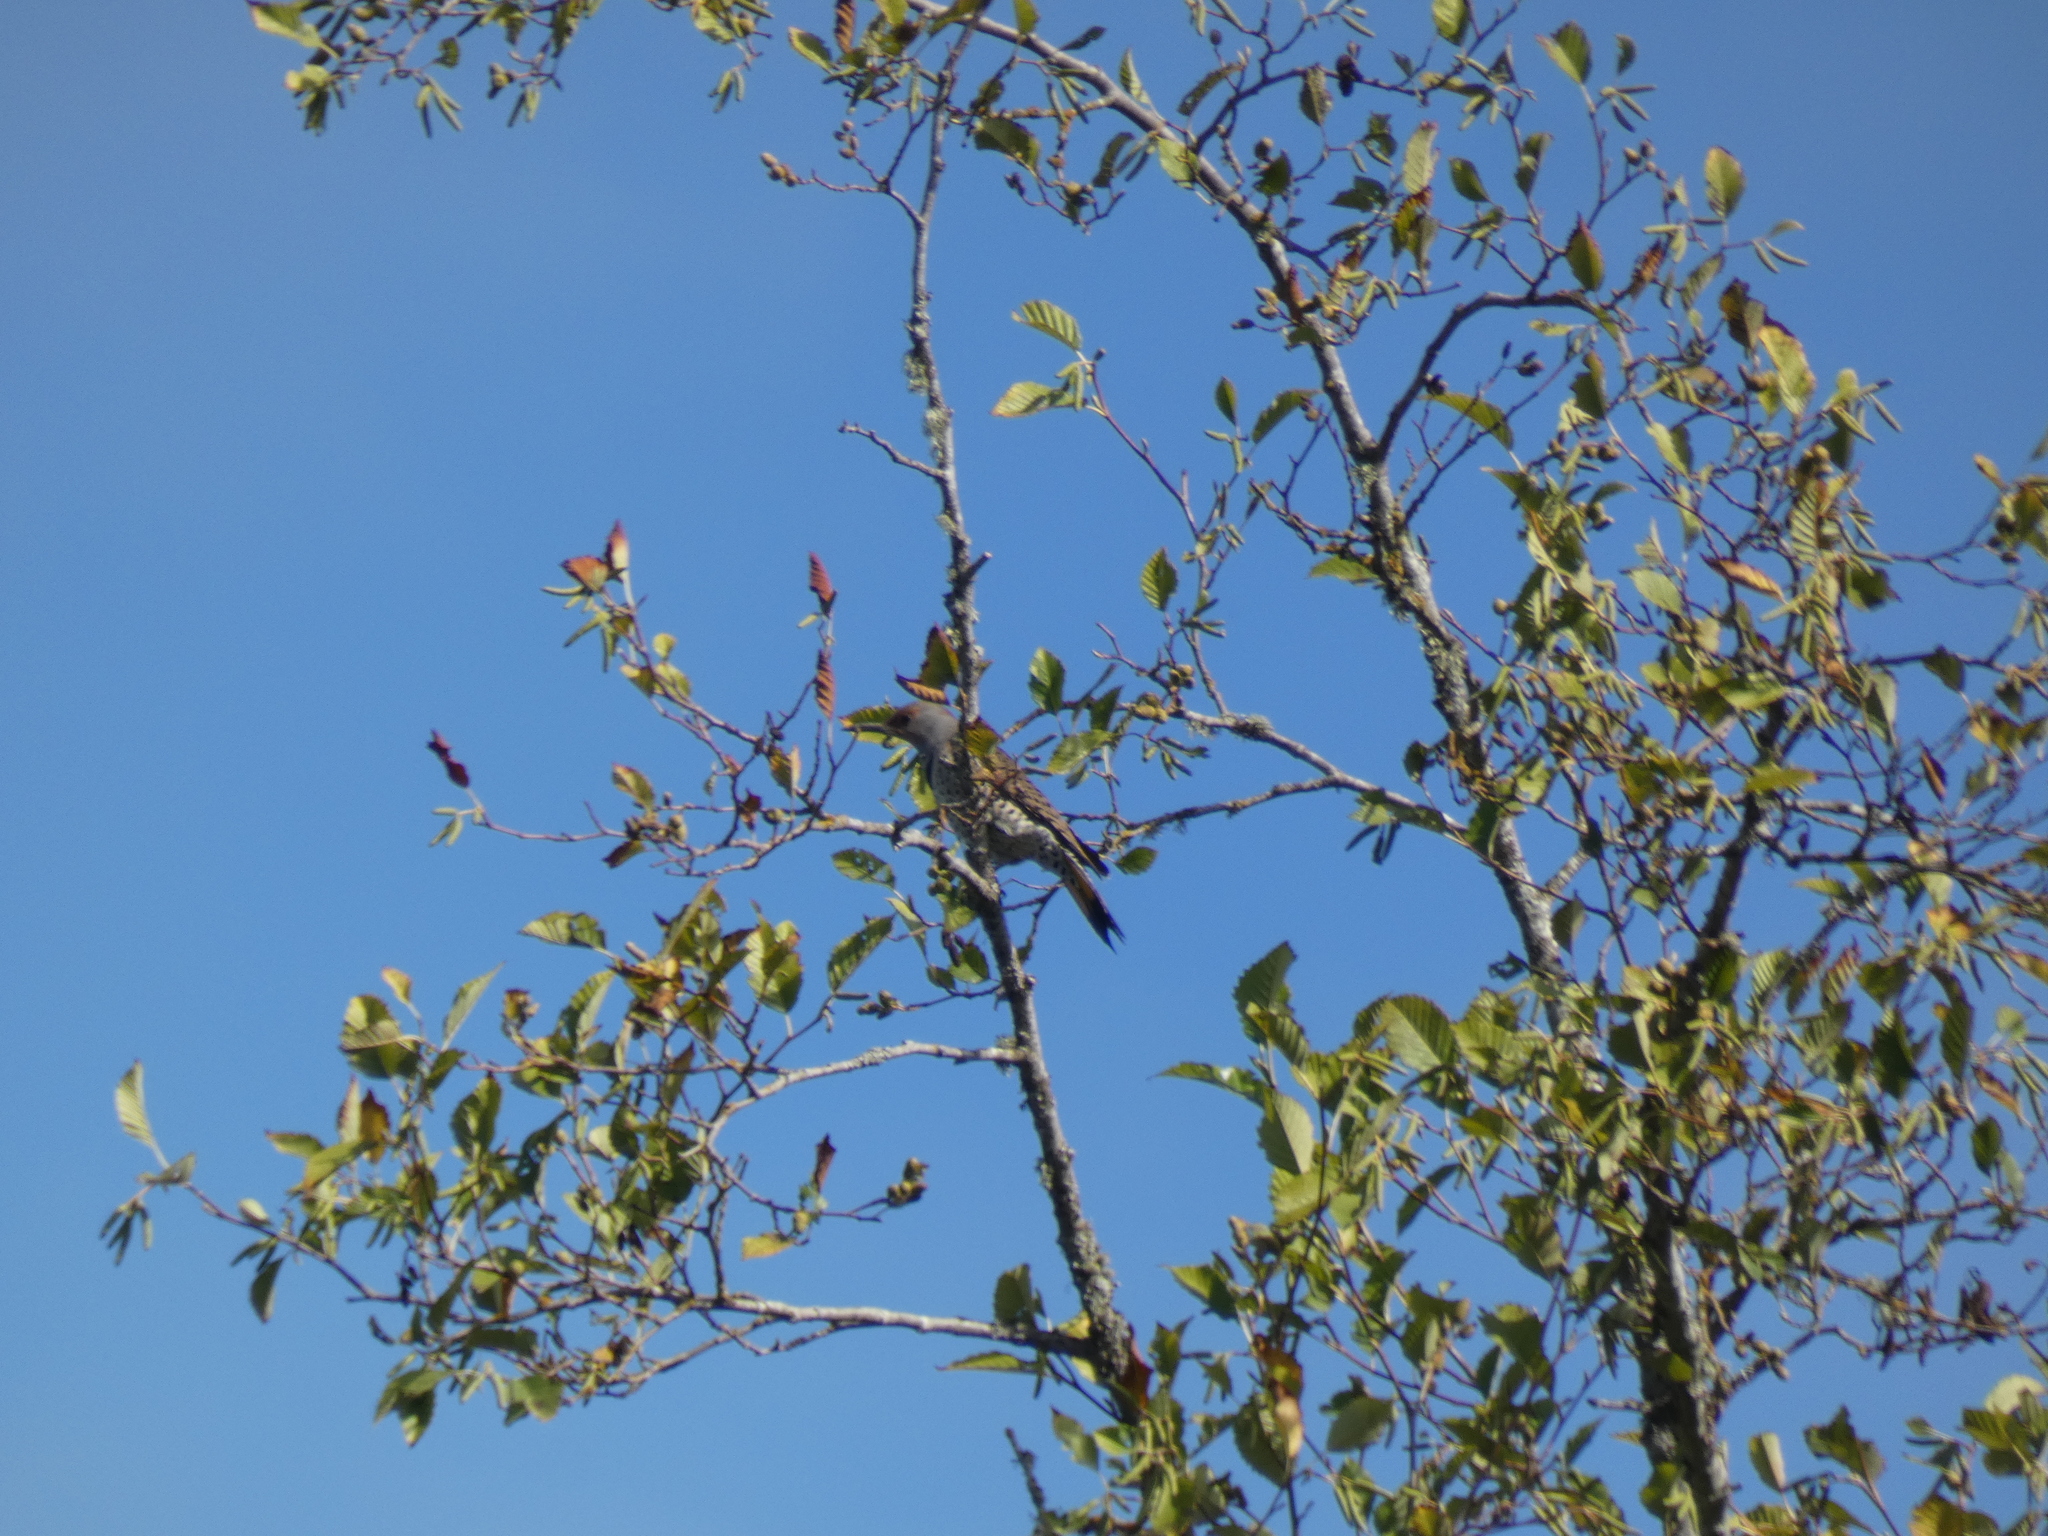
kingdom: Animalia
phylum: Chordata
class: Aves
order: Piciformes
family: Picidae
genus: Colaptes
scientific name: Colaptes auratus
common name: Northern flicker
